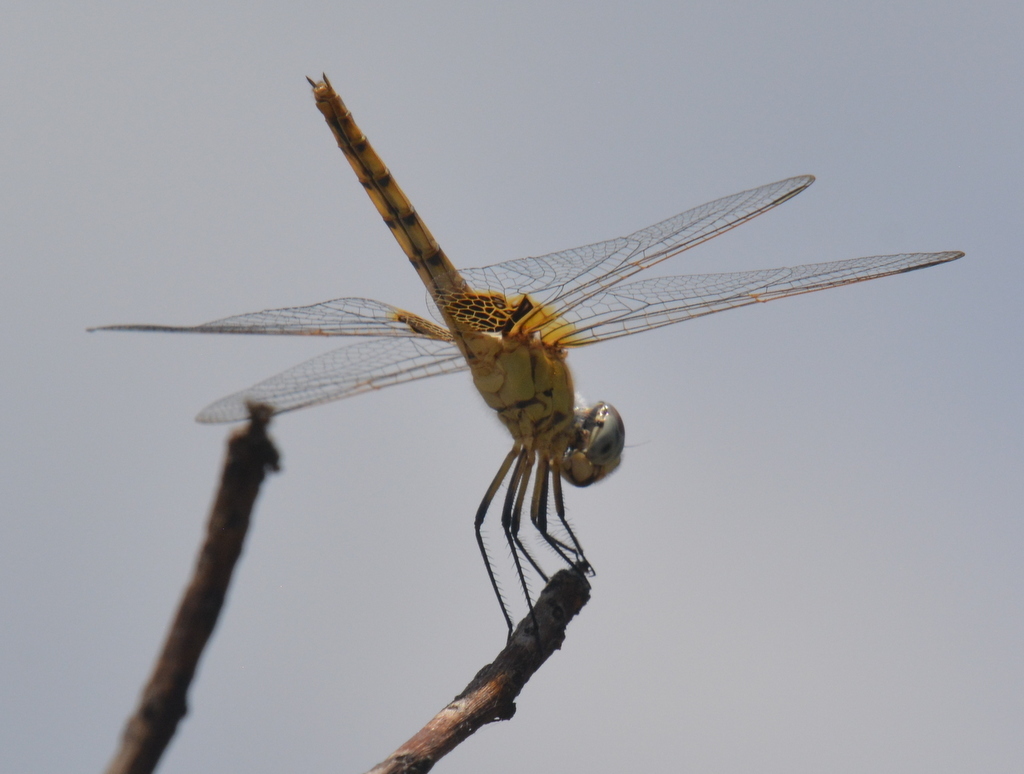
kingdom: Animalia
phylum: Arthropoda
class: Insecta
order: Odonata
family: Libellulidae
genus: Trithemis
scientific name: Trithemis annulata
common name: Violet dropwing
